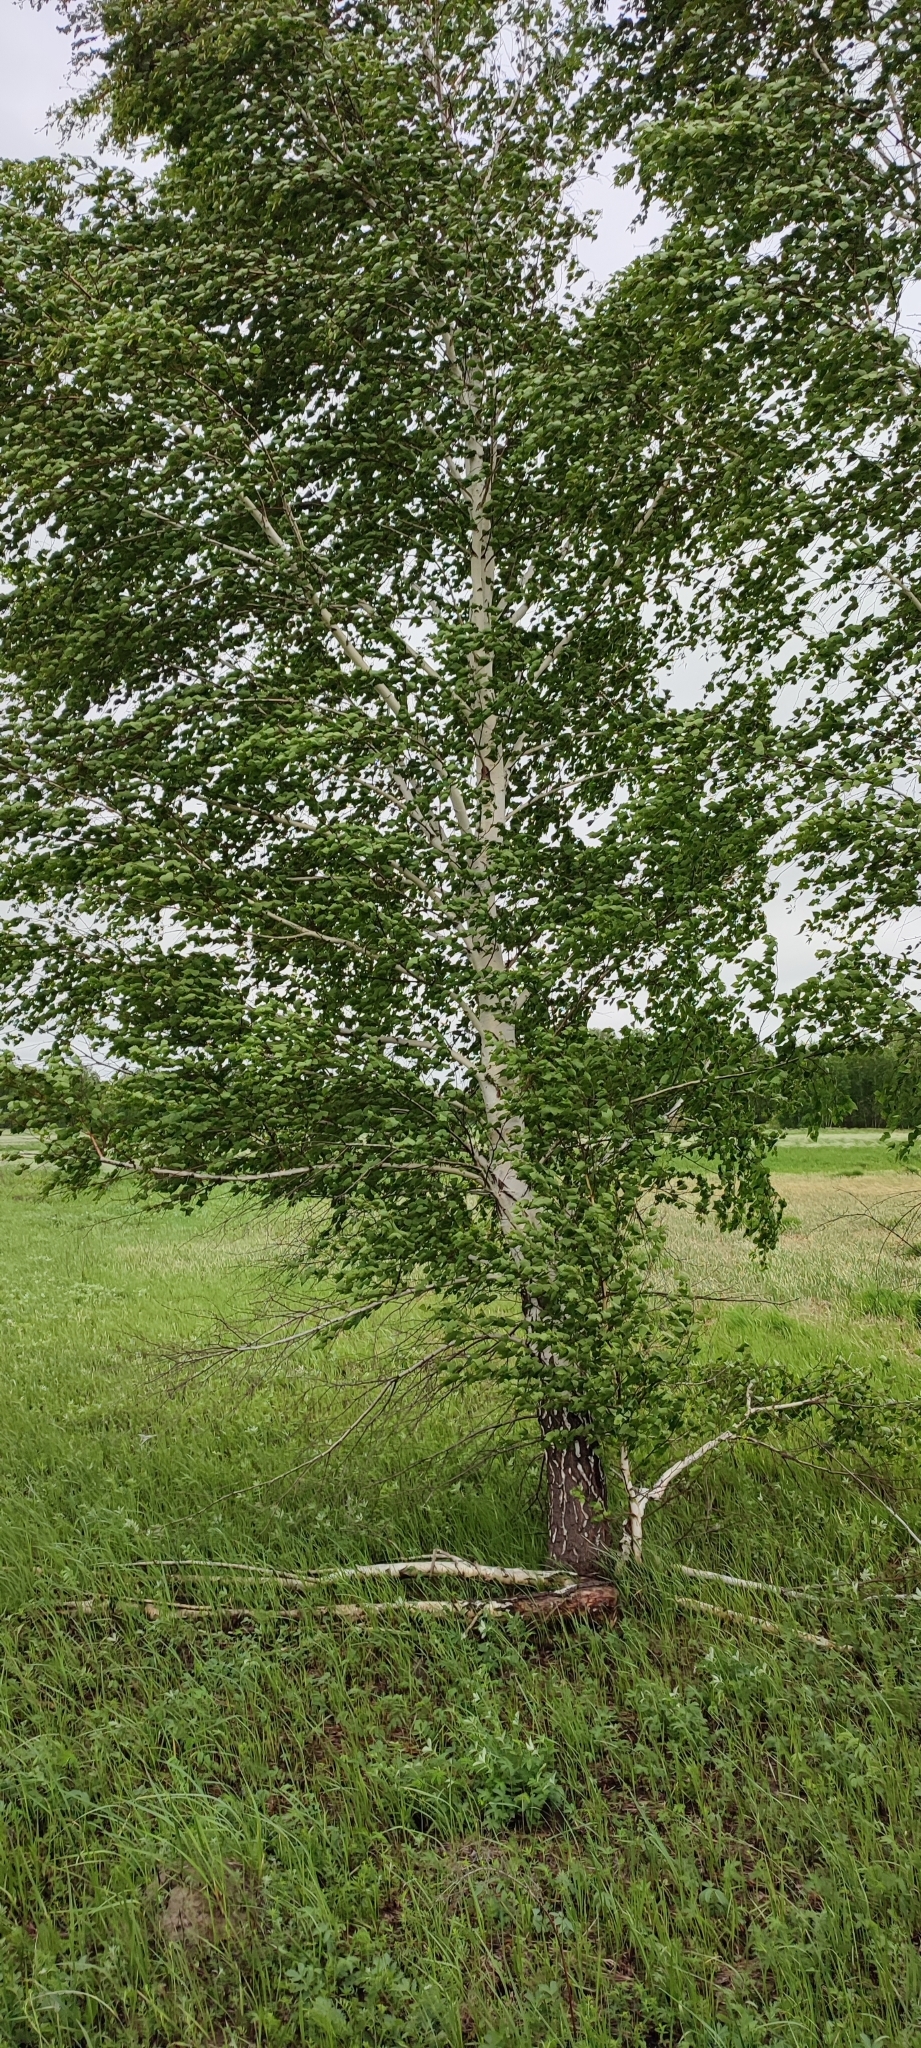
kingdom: Plantae
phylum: Tracheophyta
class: Magnoliopsida
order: Fagales
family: Betulaceae
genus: Betula
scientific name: Betula pendula
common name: Silver birch
